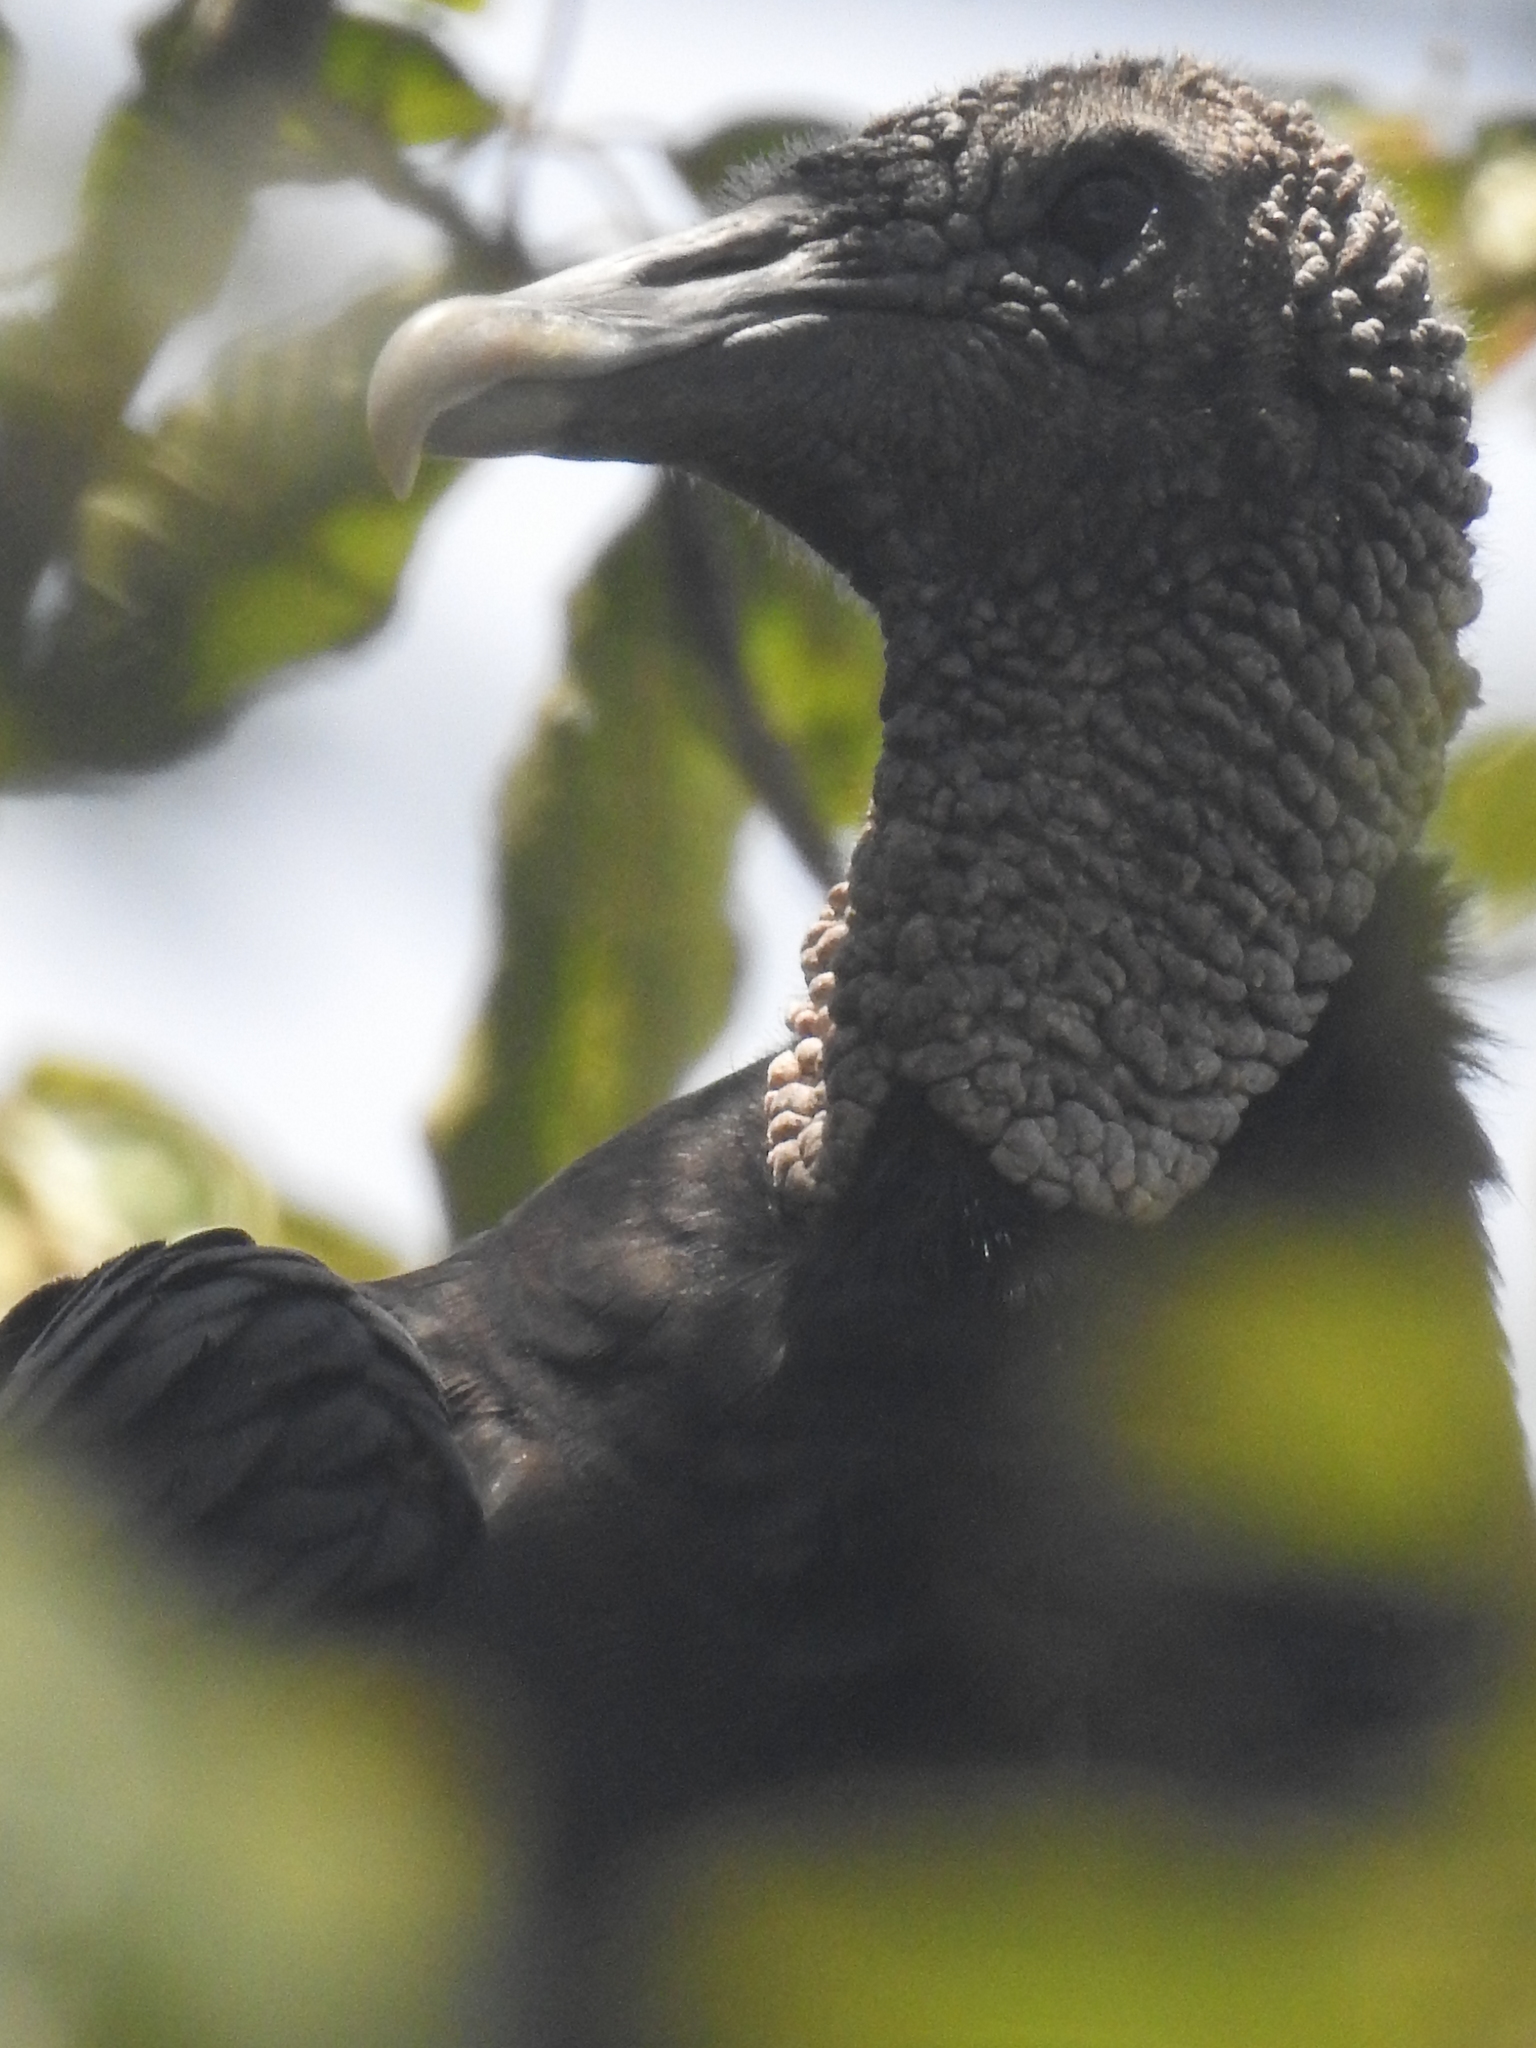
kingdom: Animalia
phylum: Chordata
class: Aves
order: Accipitriformes
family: Cathartidae
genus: Coragyps
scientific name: Coragyps atratus
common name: Black vulture
